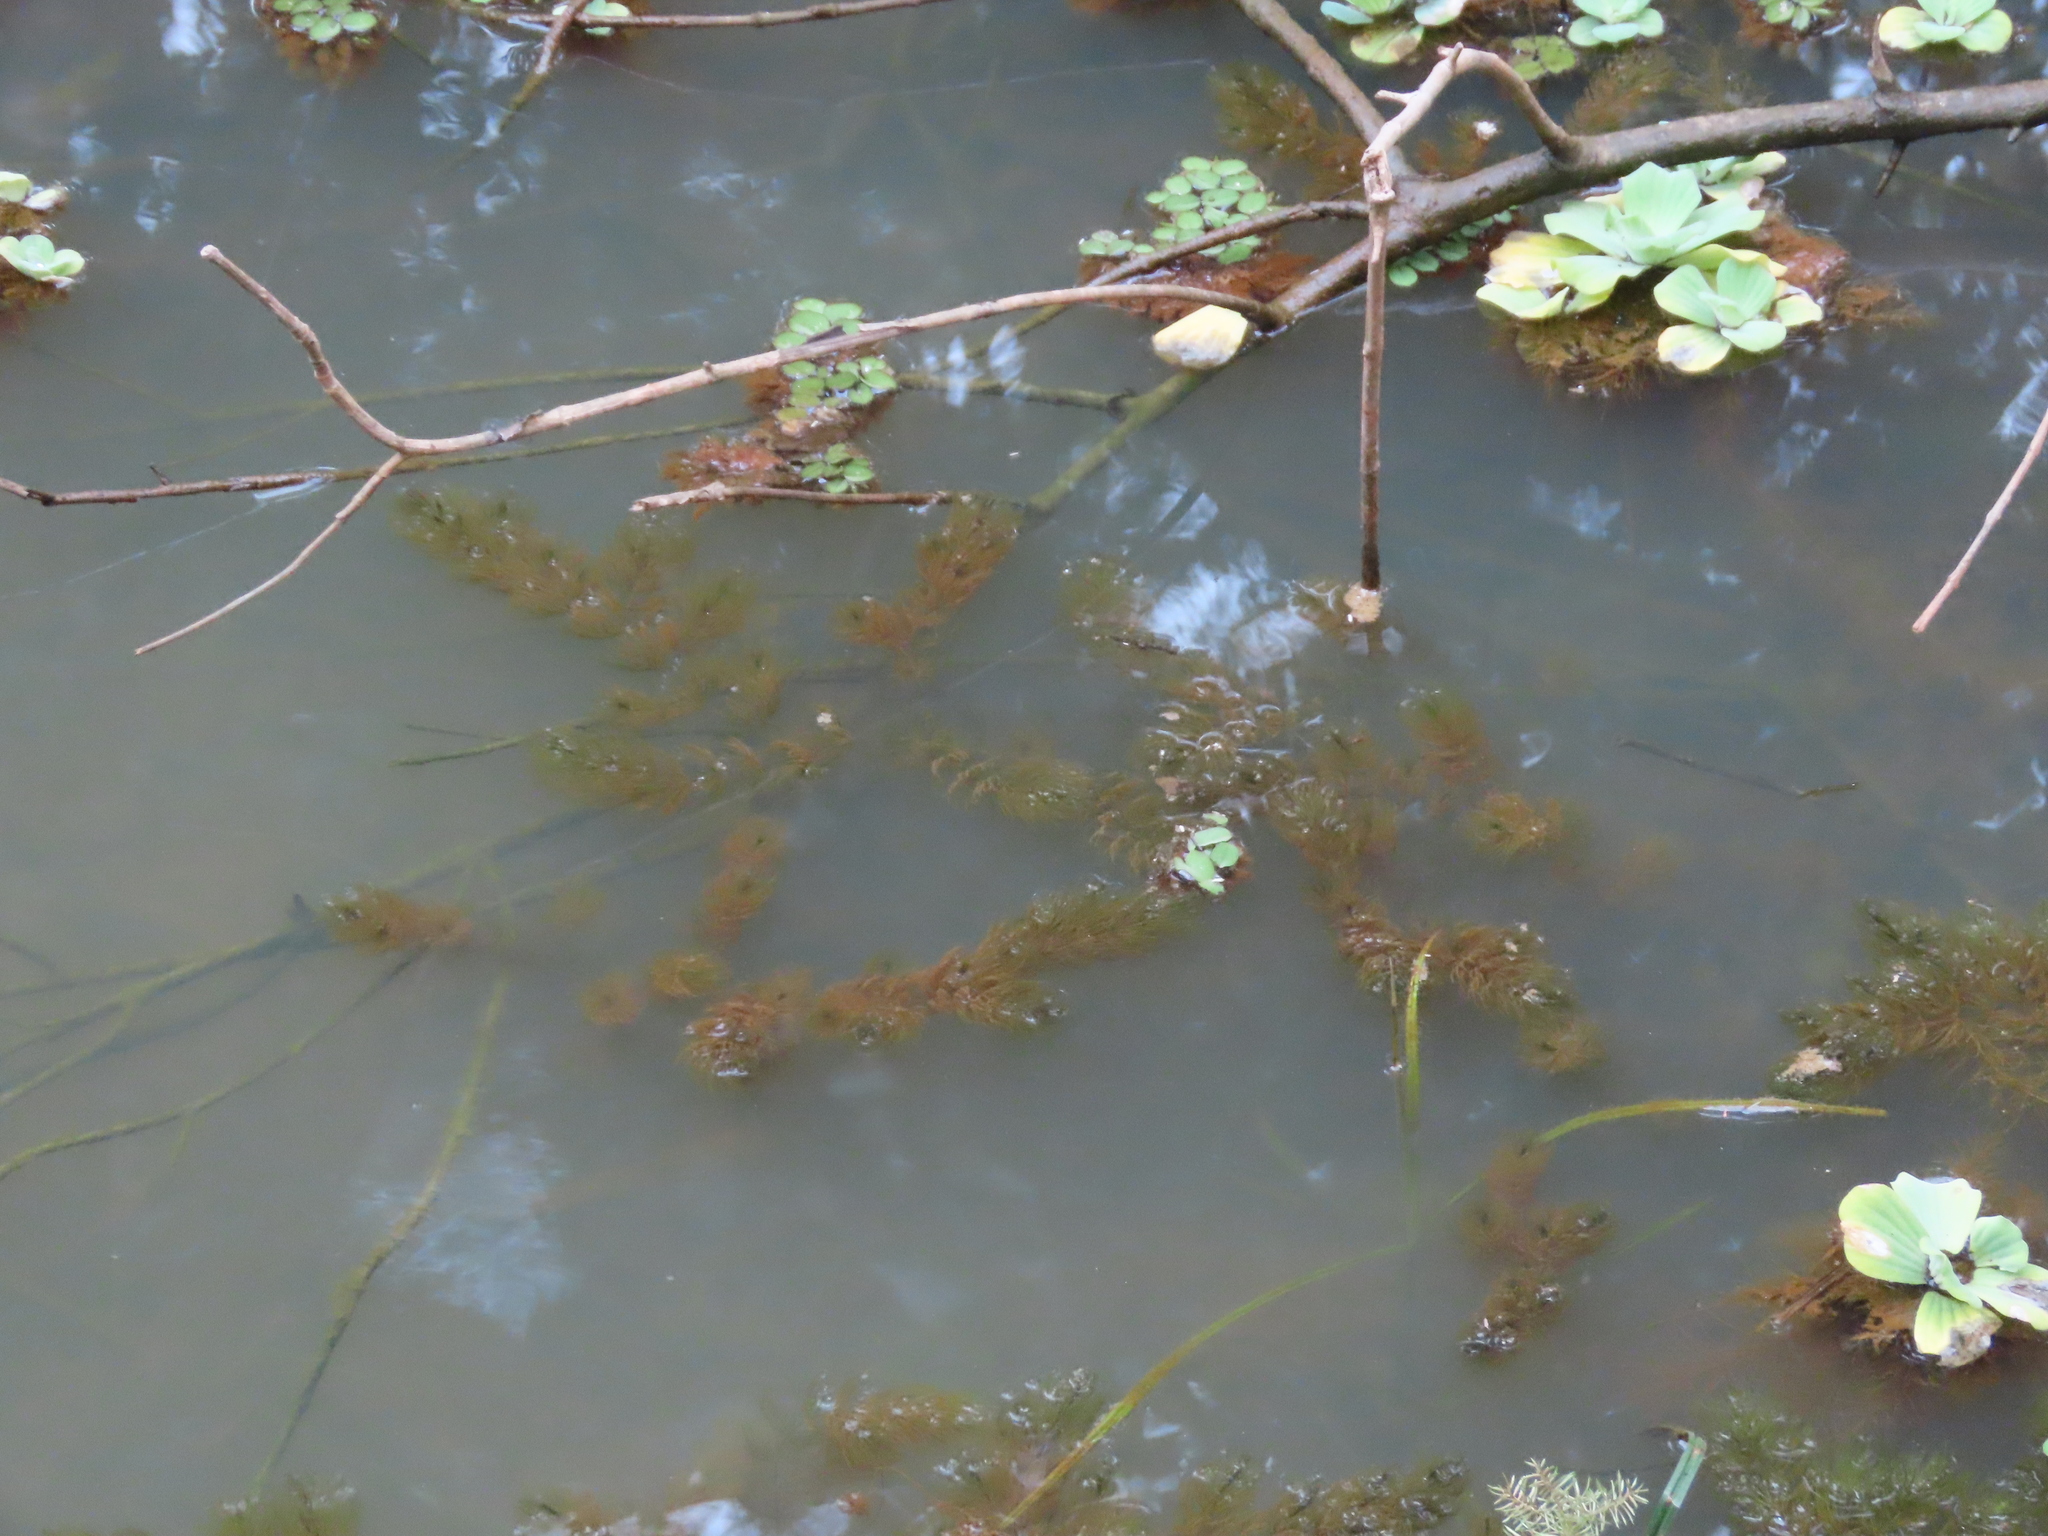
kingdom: Plantae
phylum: Tracheophyta
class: Liliopsida
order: Alismatales
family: Araceae
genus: Pistia
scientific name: Pistia stratiotes
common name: Water lettuce
